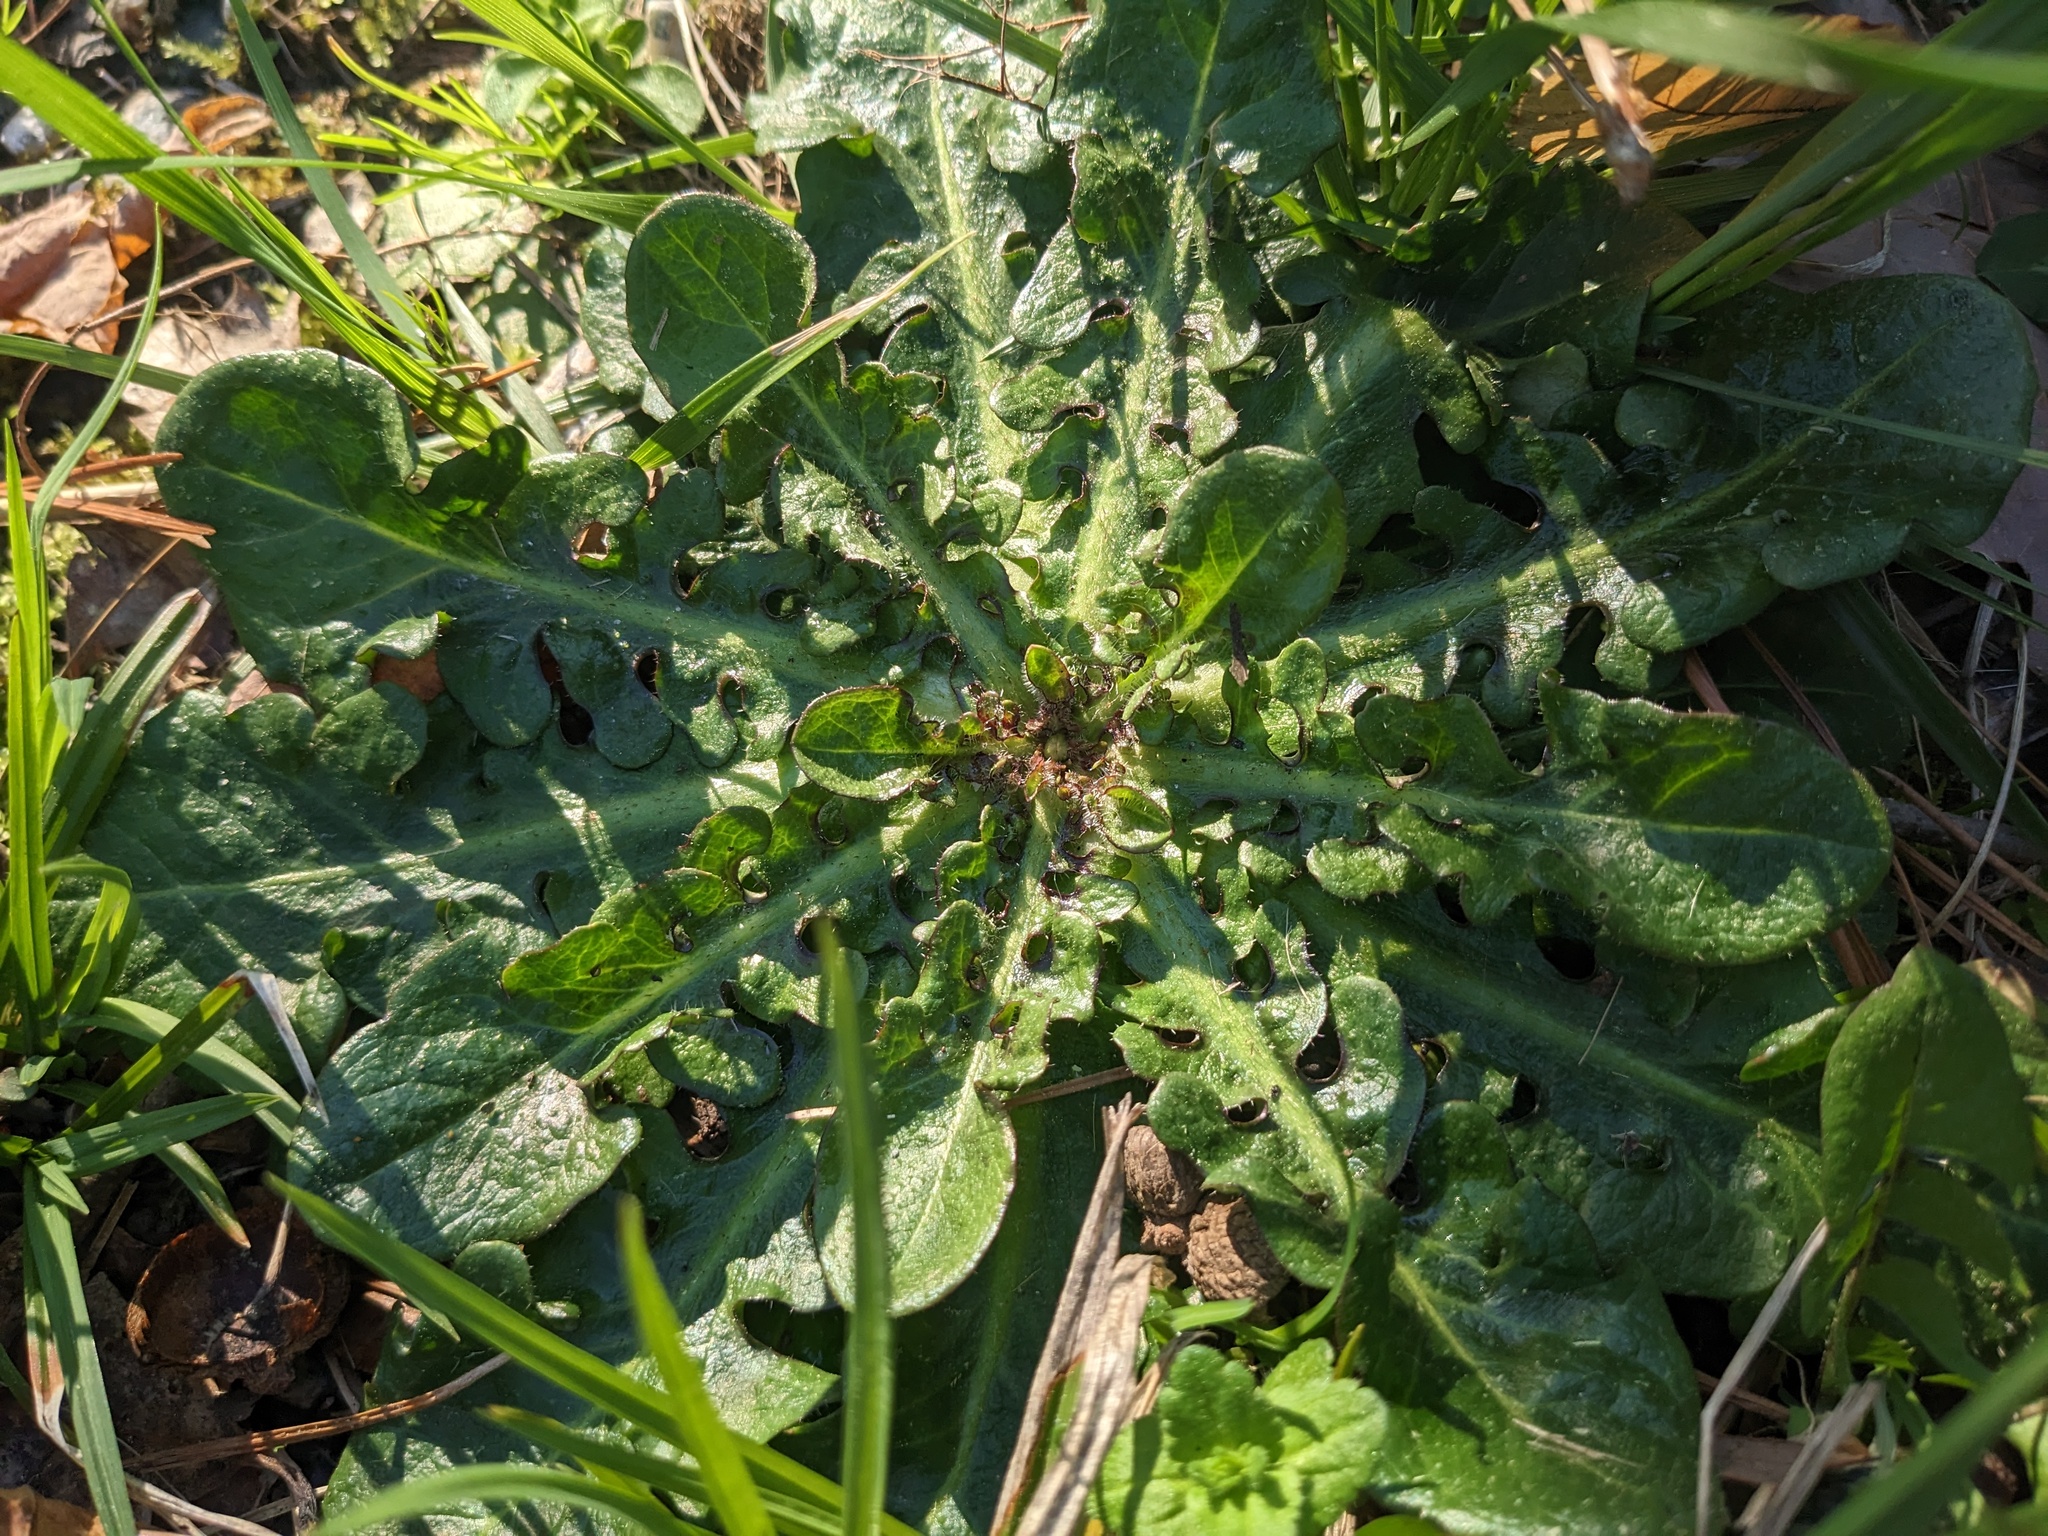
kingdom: Plantae
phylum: Tracheophyta
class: Magnoliopsida
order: Asterales
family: Asteraceae
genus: Hypochaeris
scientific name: Hypochaeris radicata
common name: Flatweed
